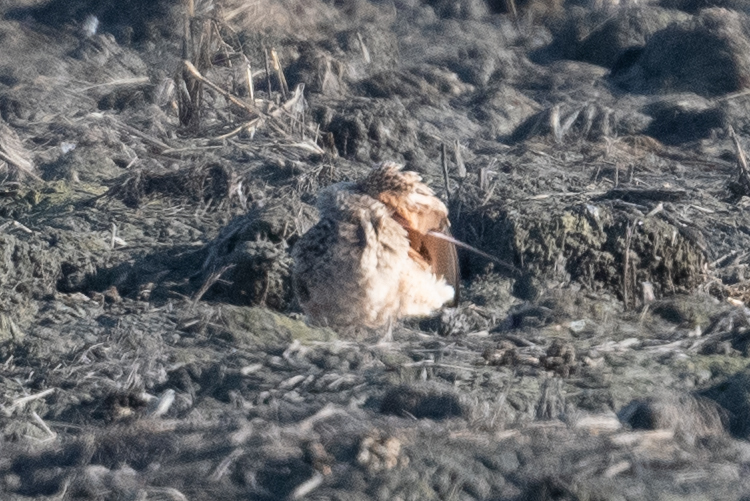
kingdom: Animalia
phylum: Chordata
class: Aves
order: Charadriiformes
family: Scolopacidae
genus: Numenius
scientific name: Numenius americanus
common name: Long-billed curlew
